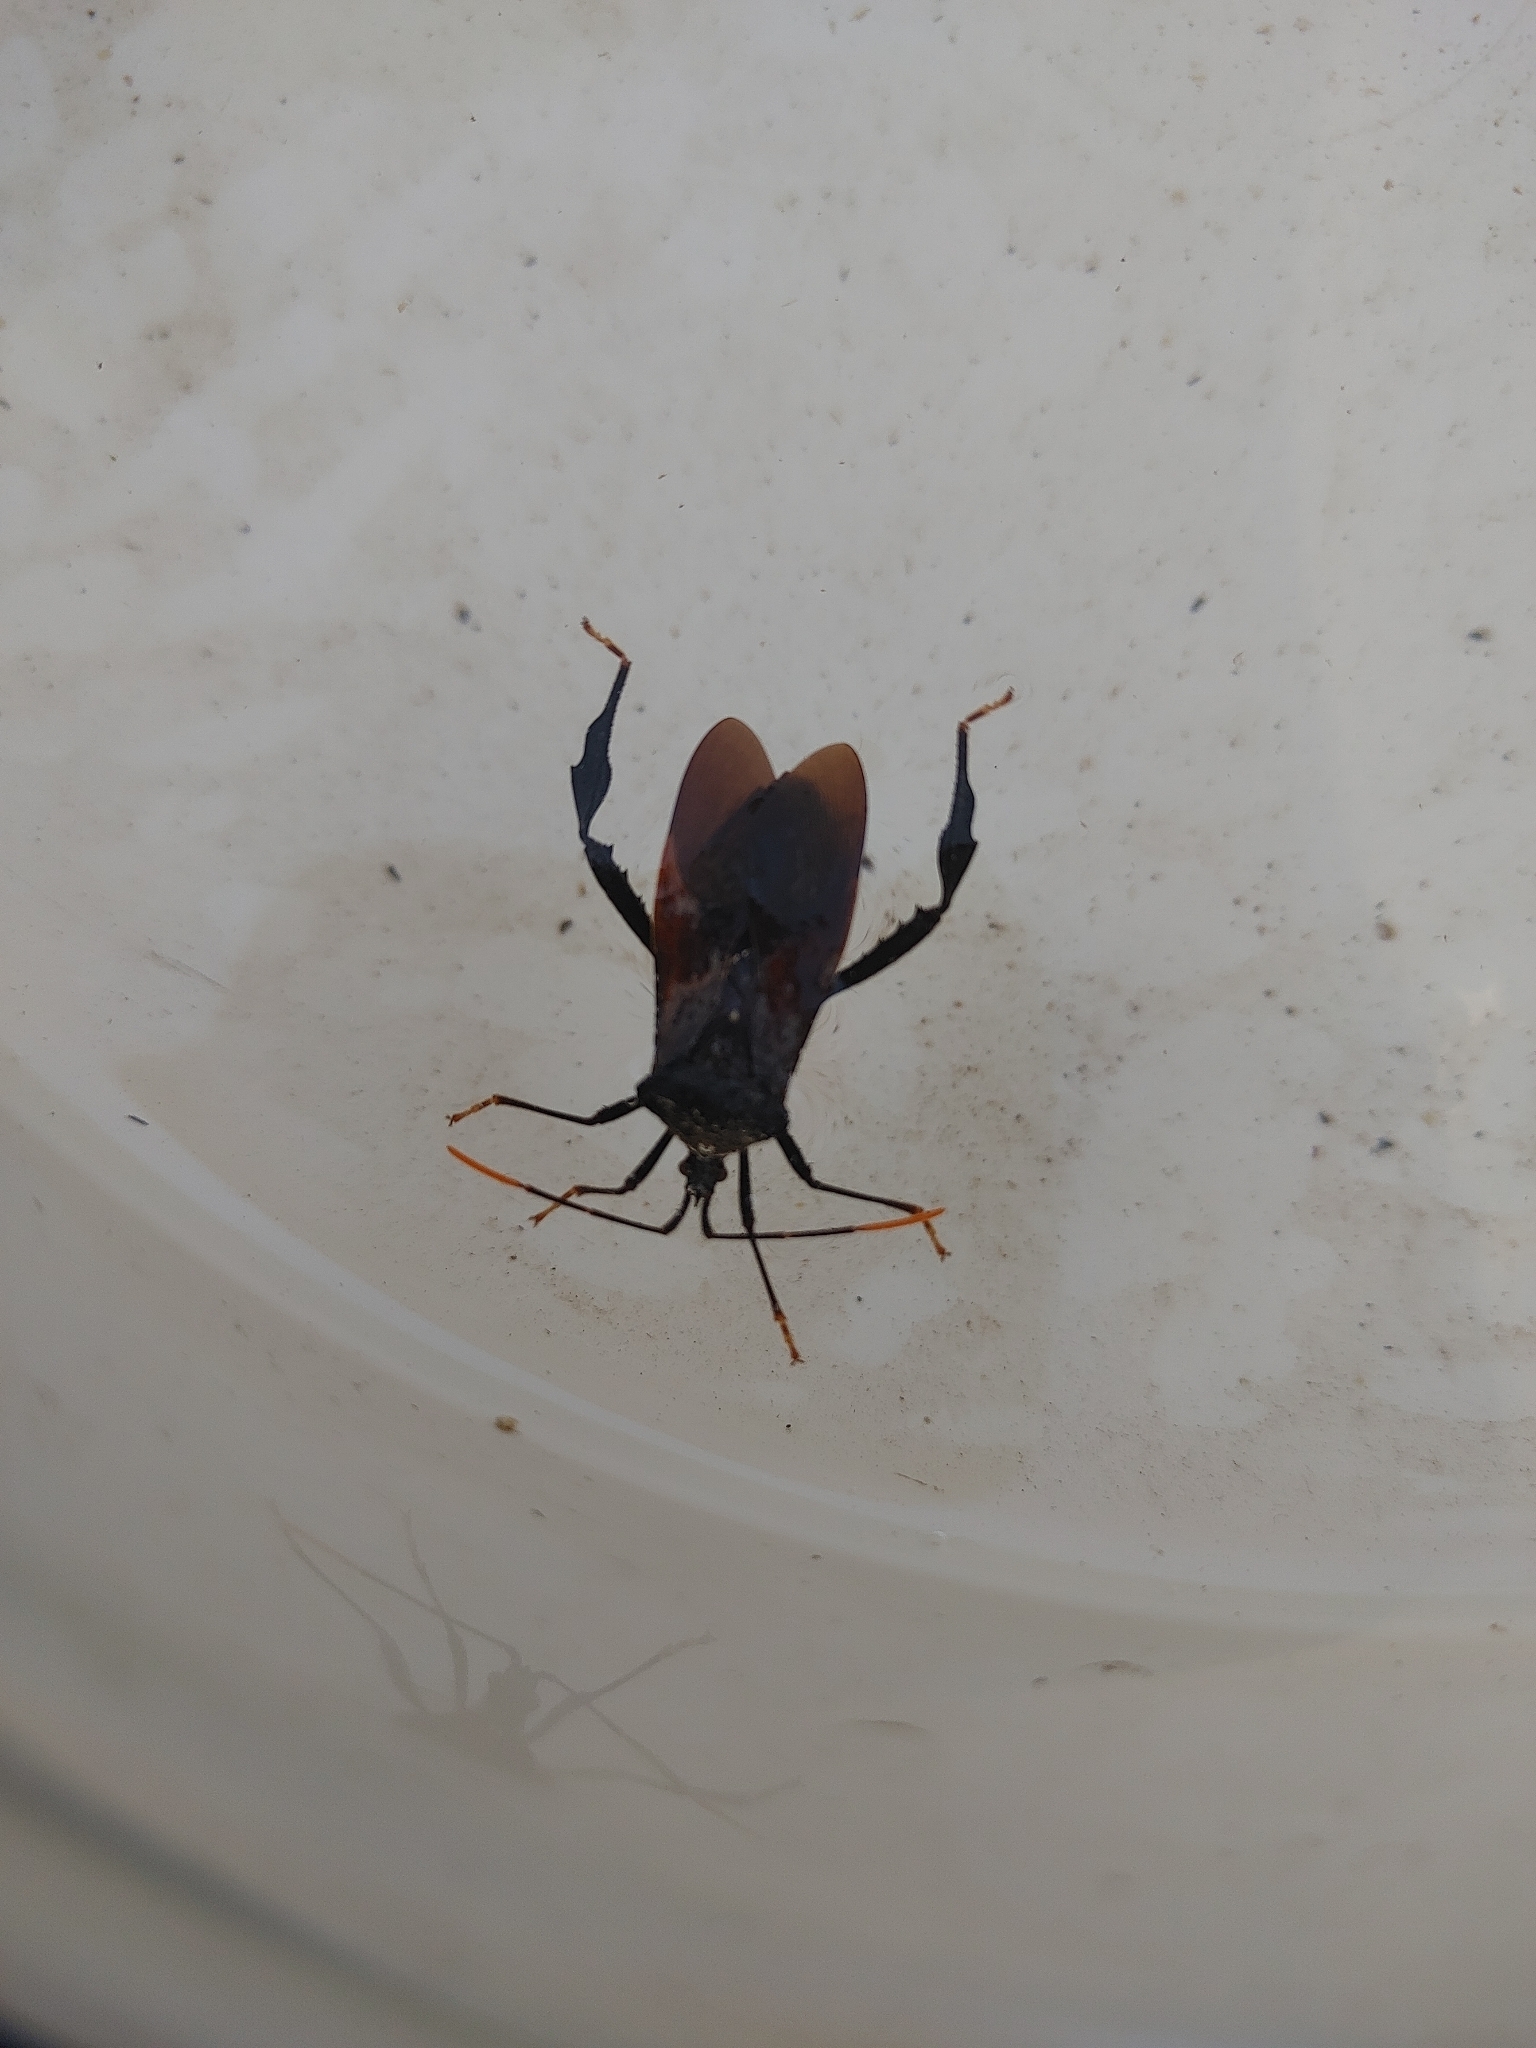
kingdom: Animalia
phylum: Arthropoda
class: Insecta
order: Hemiptera
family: Coreidae
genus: Acanthocephala
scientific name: Acanthocephala terminalis
